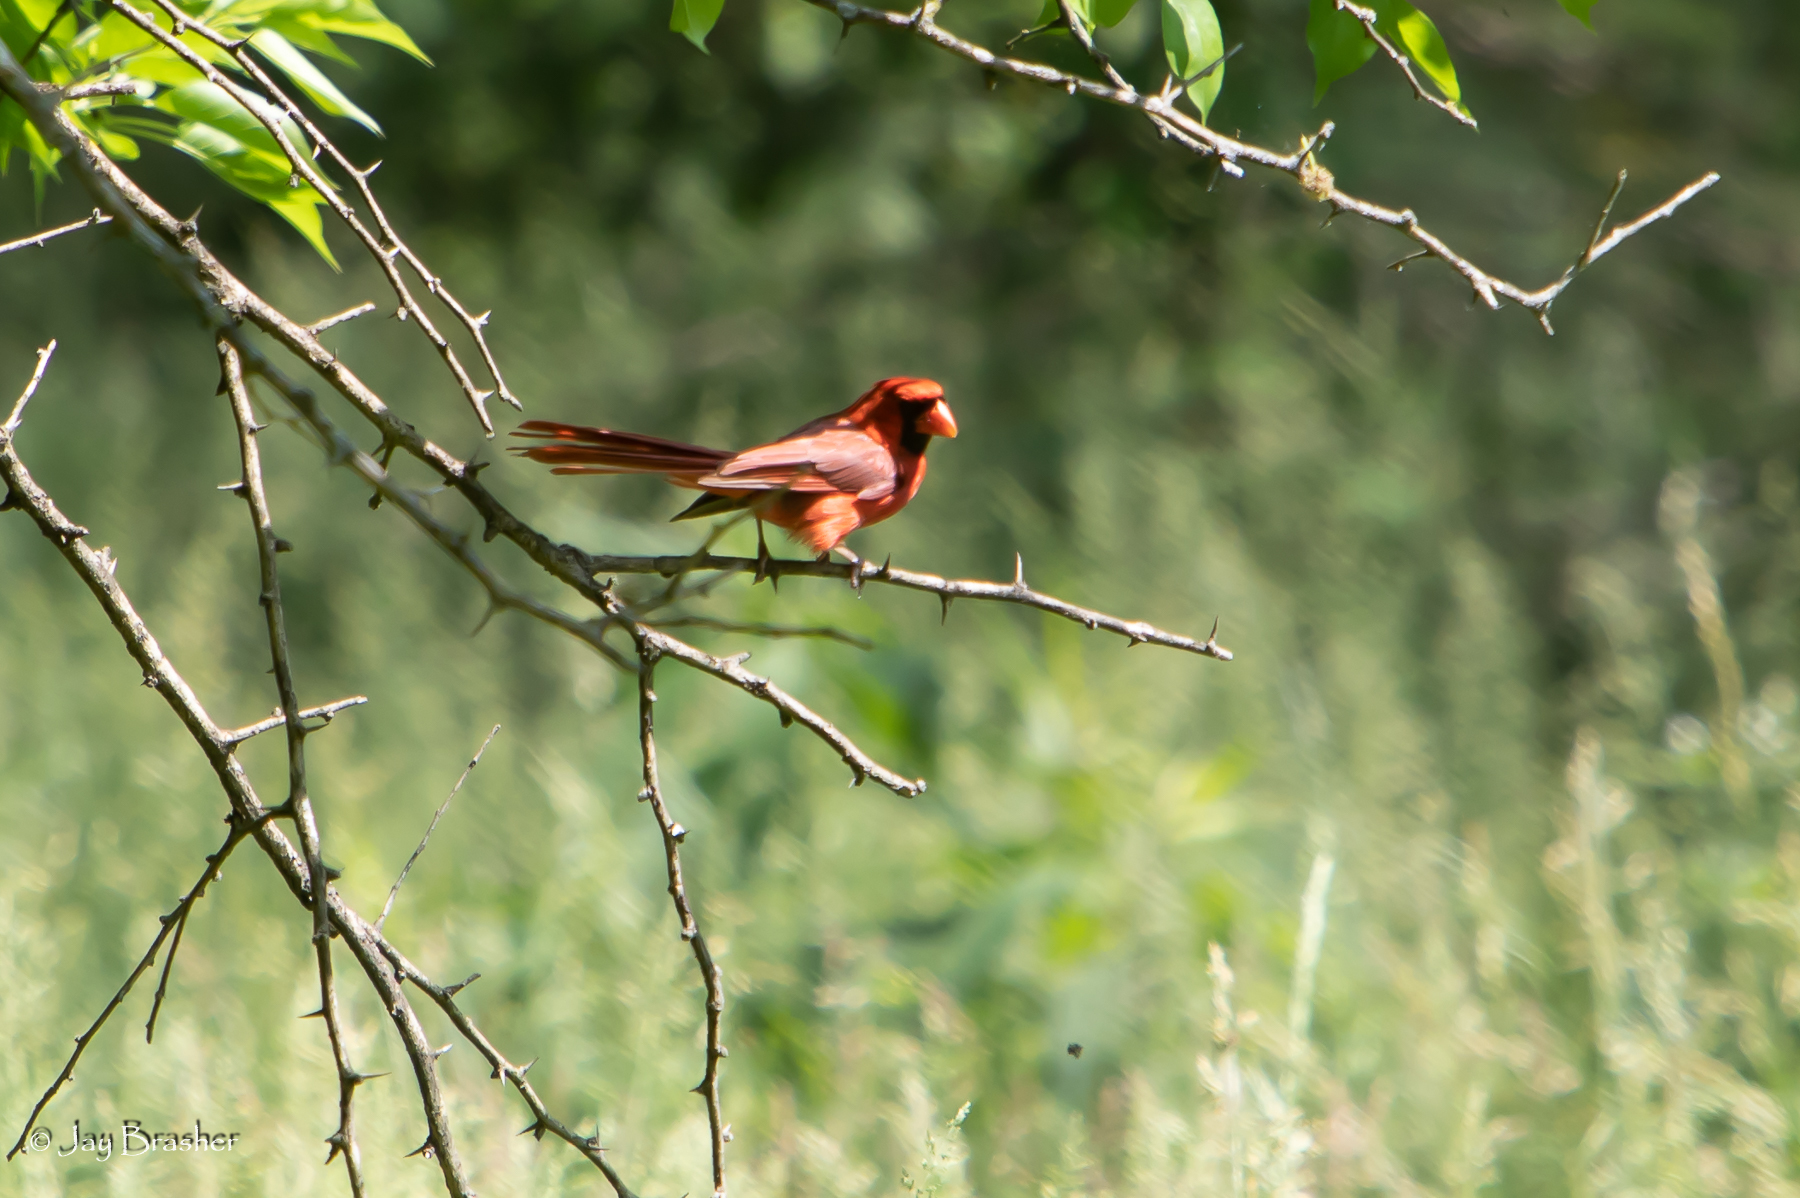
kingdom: Animalia
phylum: Chordata
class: Aves
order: Passeriformes
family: Cardinalidae
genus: Cardinalis
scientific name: Cardinalis cardinalis
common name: Northern cardinal
